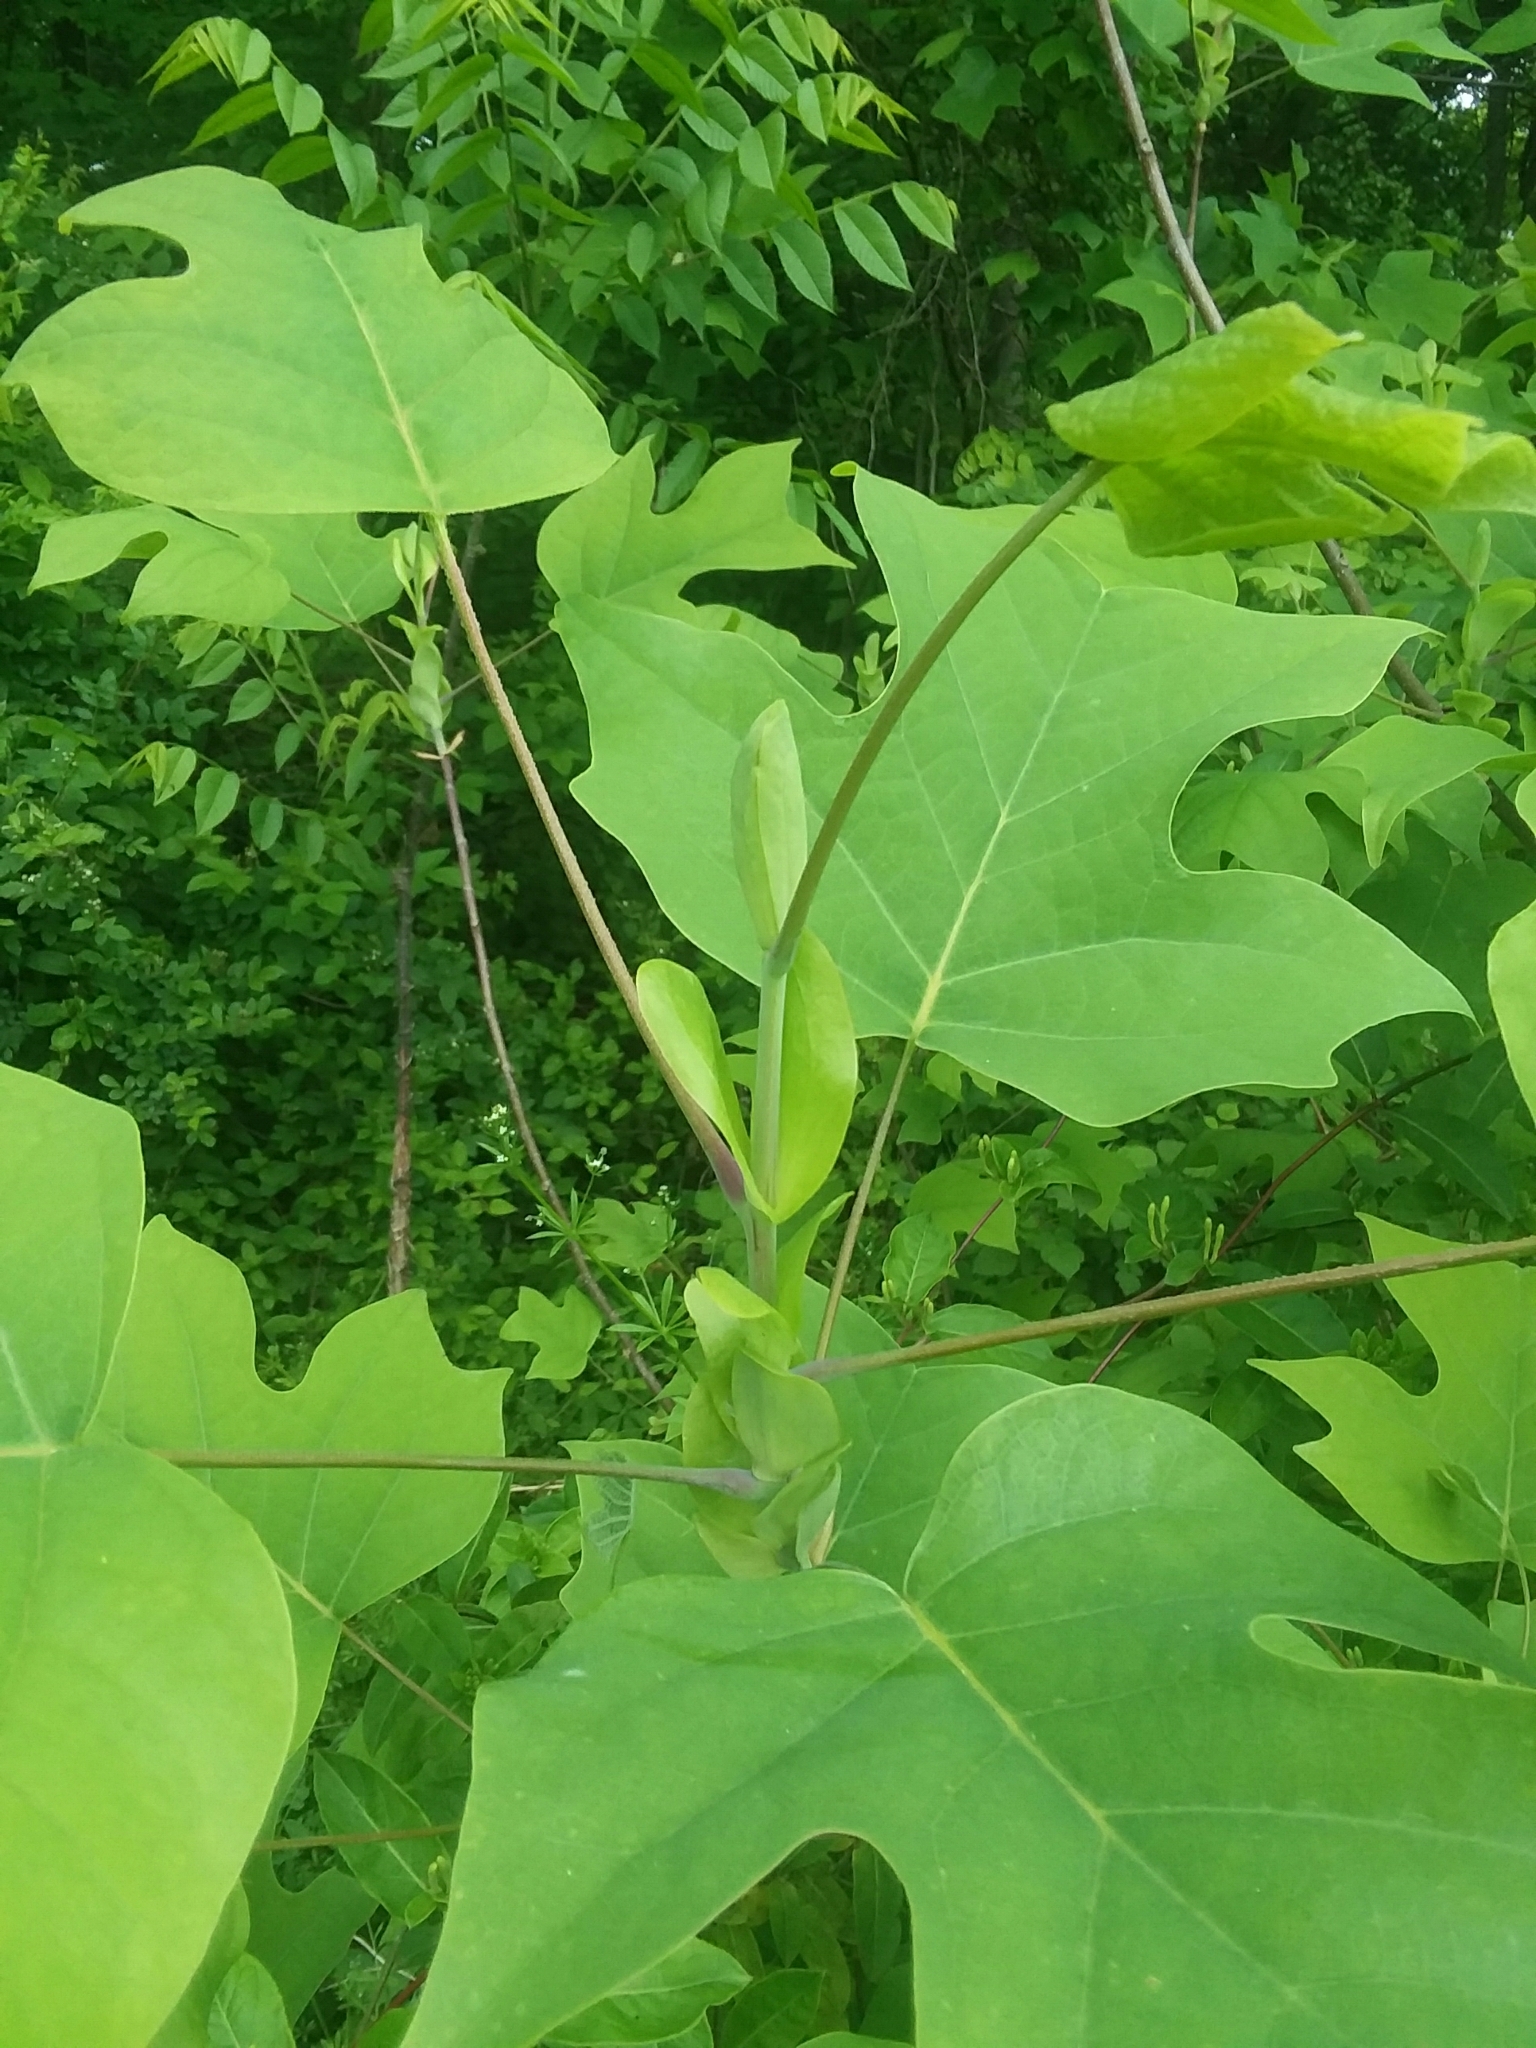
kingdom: Plantae
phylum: Tracheophyta
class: Magnoliopsida
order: Magnoliales
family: Magnoliaceae
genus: Liriodendron
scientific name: Liriodendron tulipifera
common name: Tulip tree
